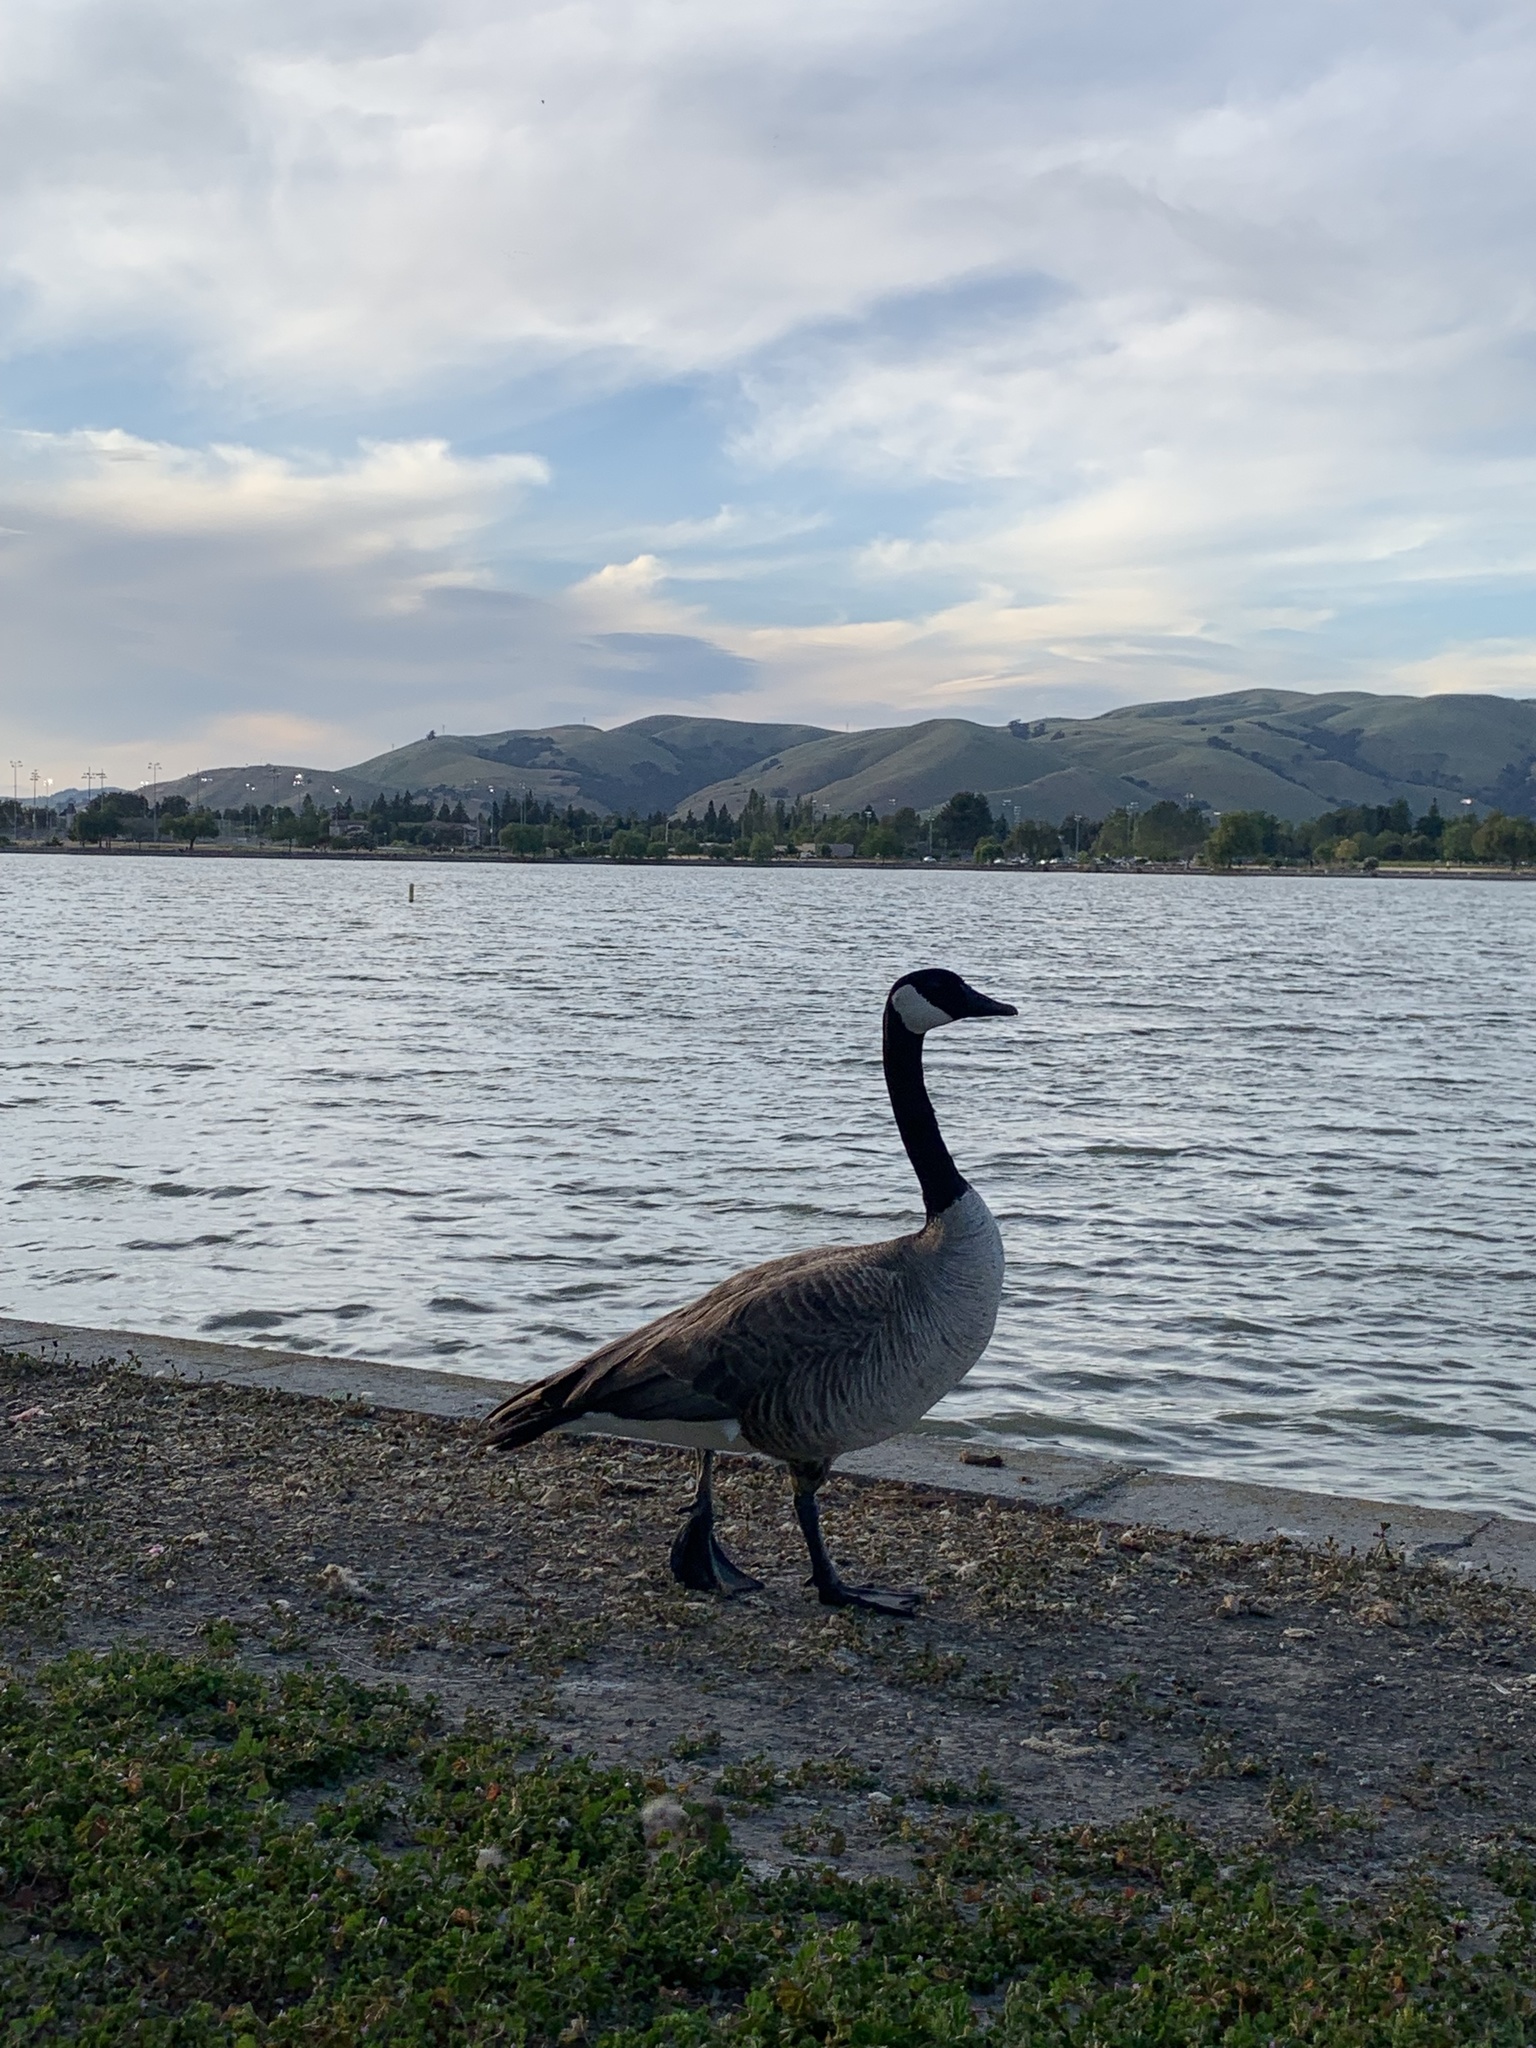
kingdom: Animalia
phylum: Chordata
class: Aves
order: Anseriformes
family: Anatidae
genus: Branta
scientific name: Branta canadensis
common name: Canada goose
